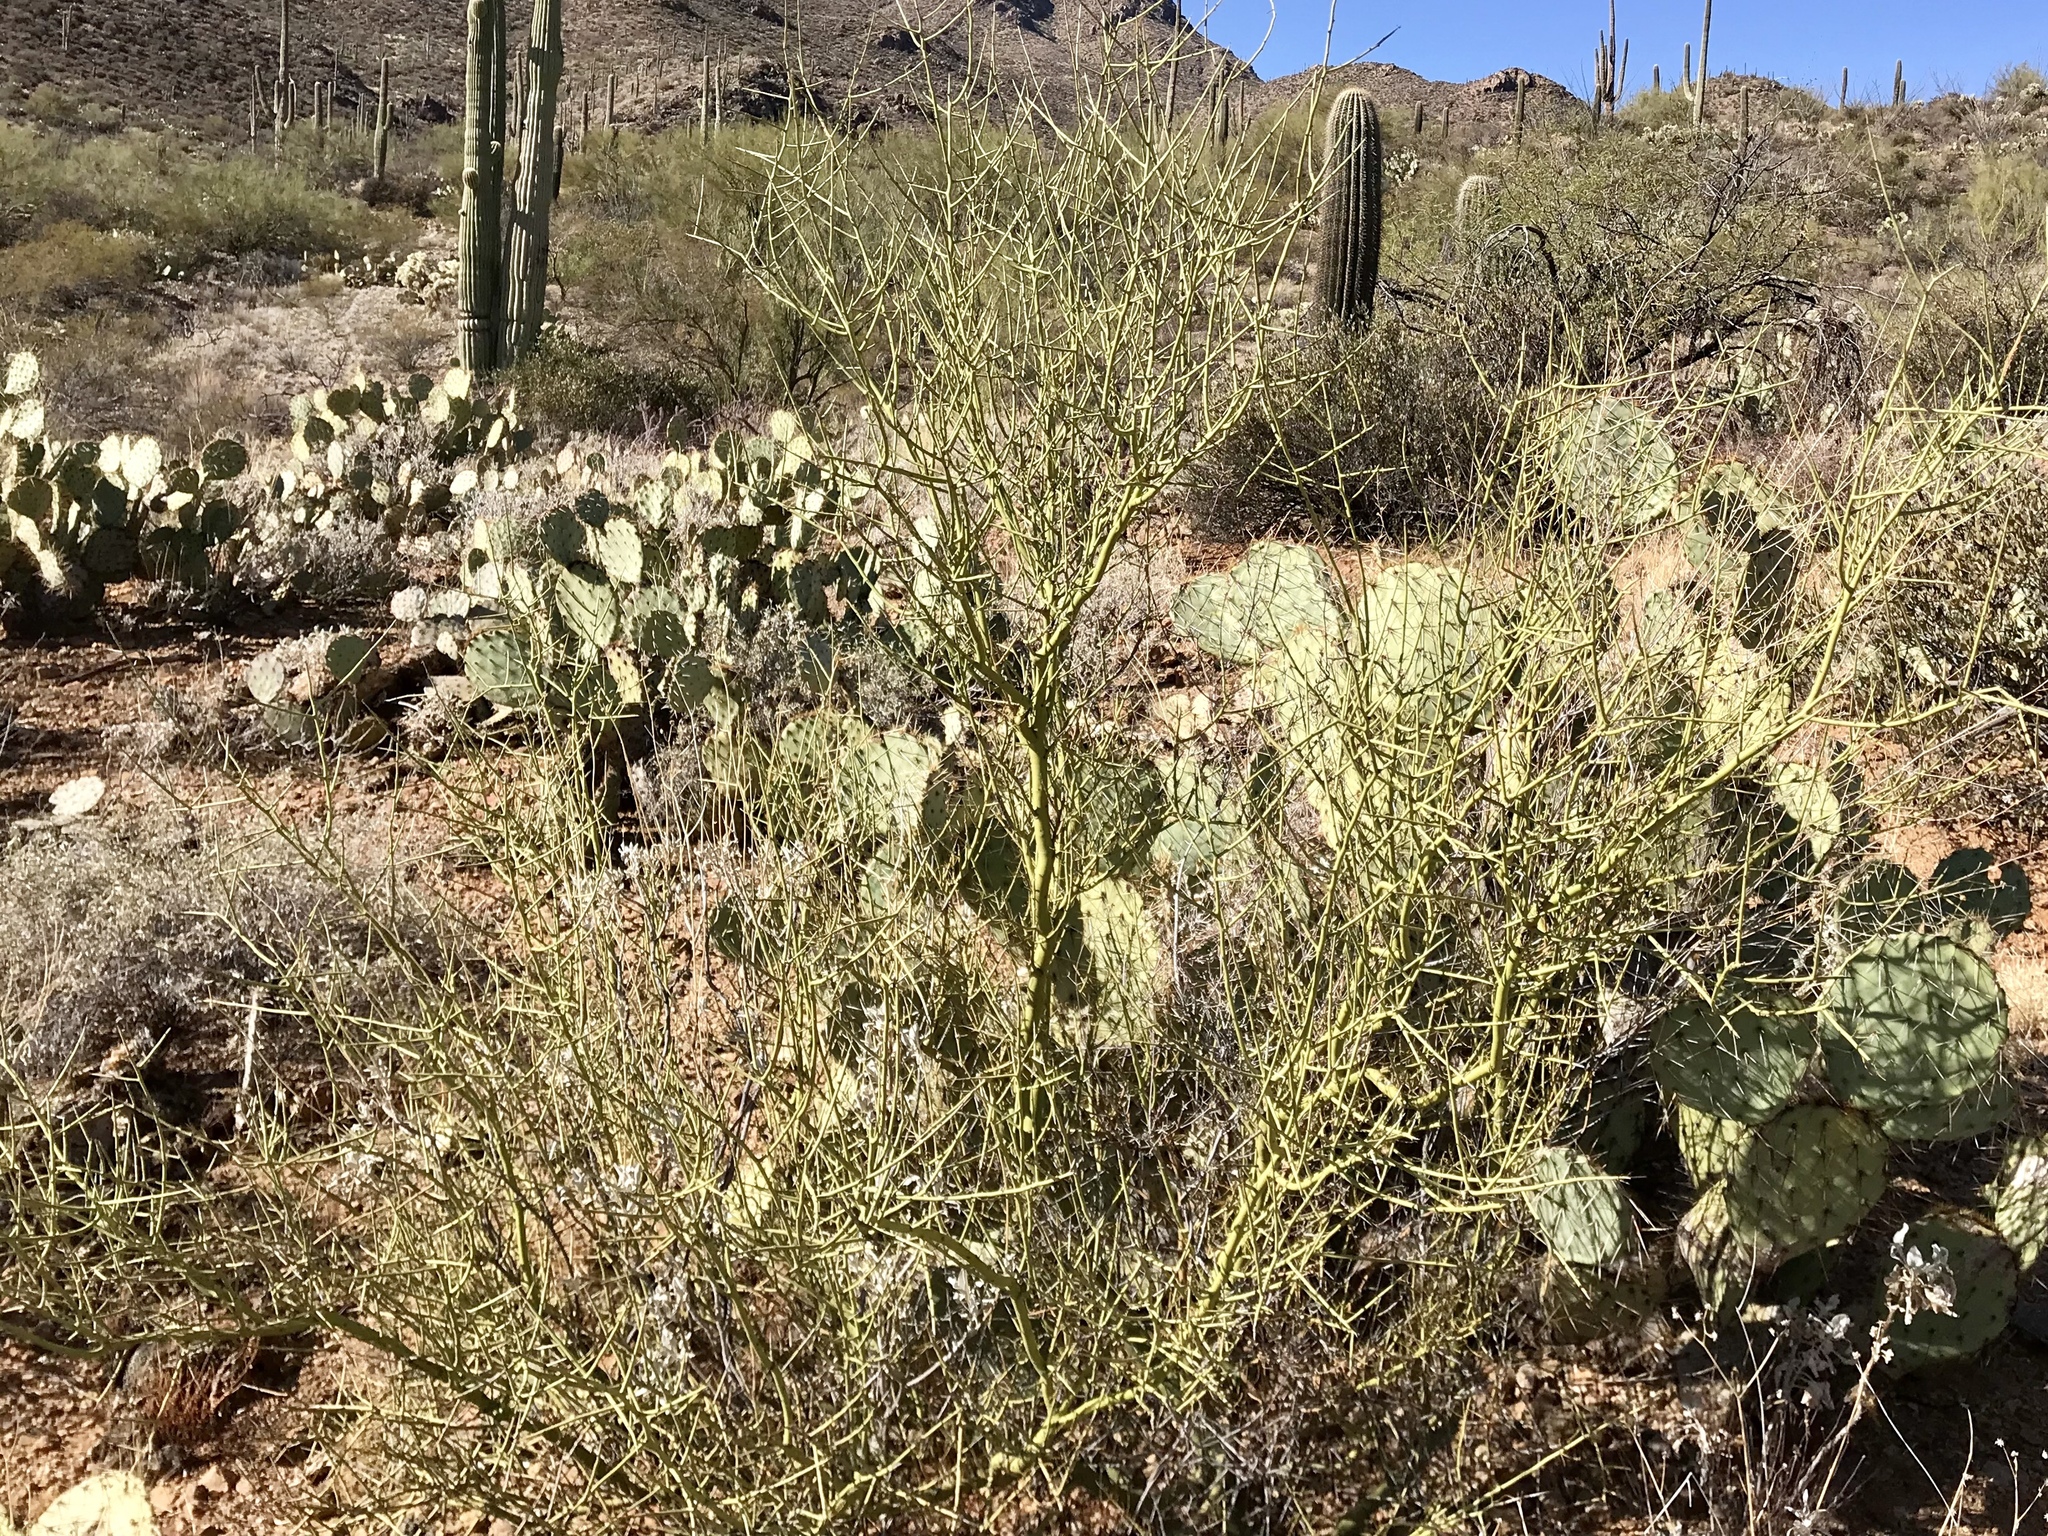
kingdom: Plantae
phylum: Tracheophyta
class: Magnoliopsida
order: Fabales
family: Fabaceae
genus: Parkinsonia
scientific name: Parkinsonia microphylla
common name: Yellow paloverde
